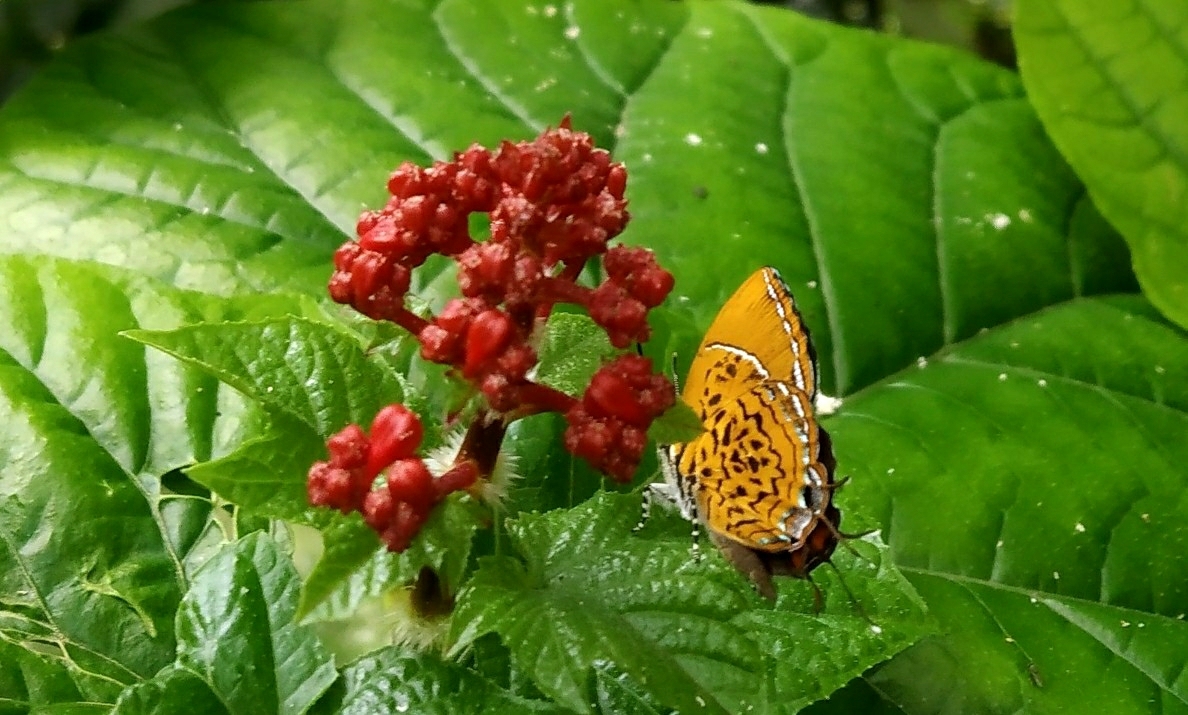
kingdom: Animalia
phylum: Arthropoda
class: Insecta
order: Lepidoptera
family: Lycaenidae
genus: Rathinda
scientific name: Rathinda amor
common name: Monkey puzzle
